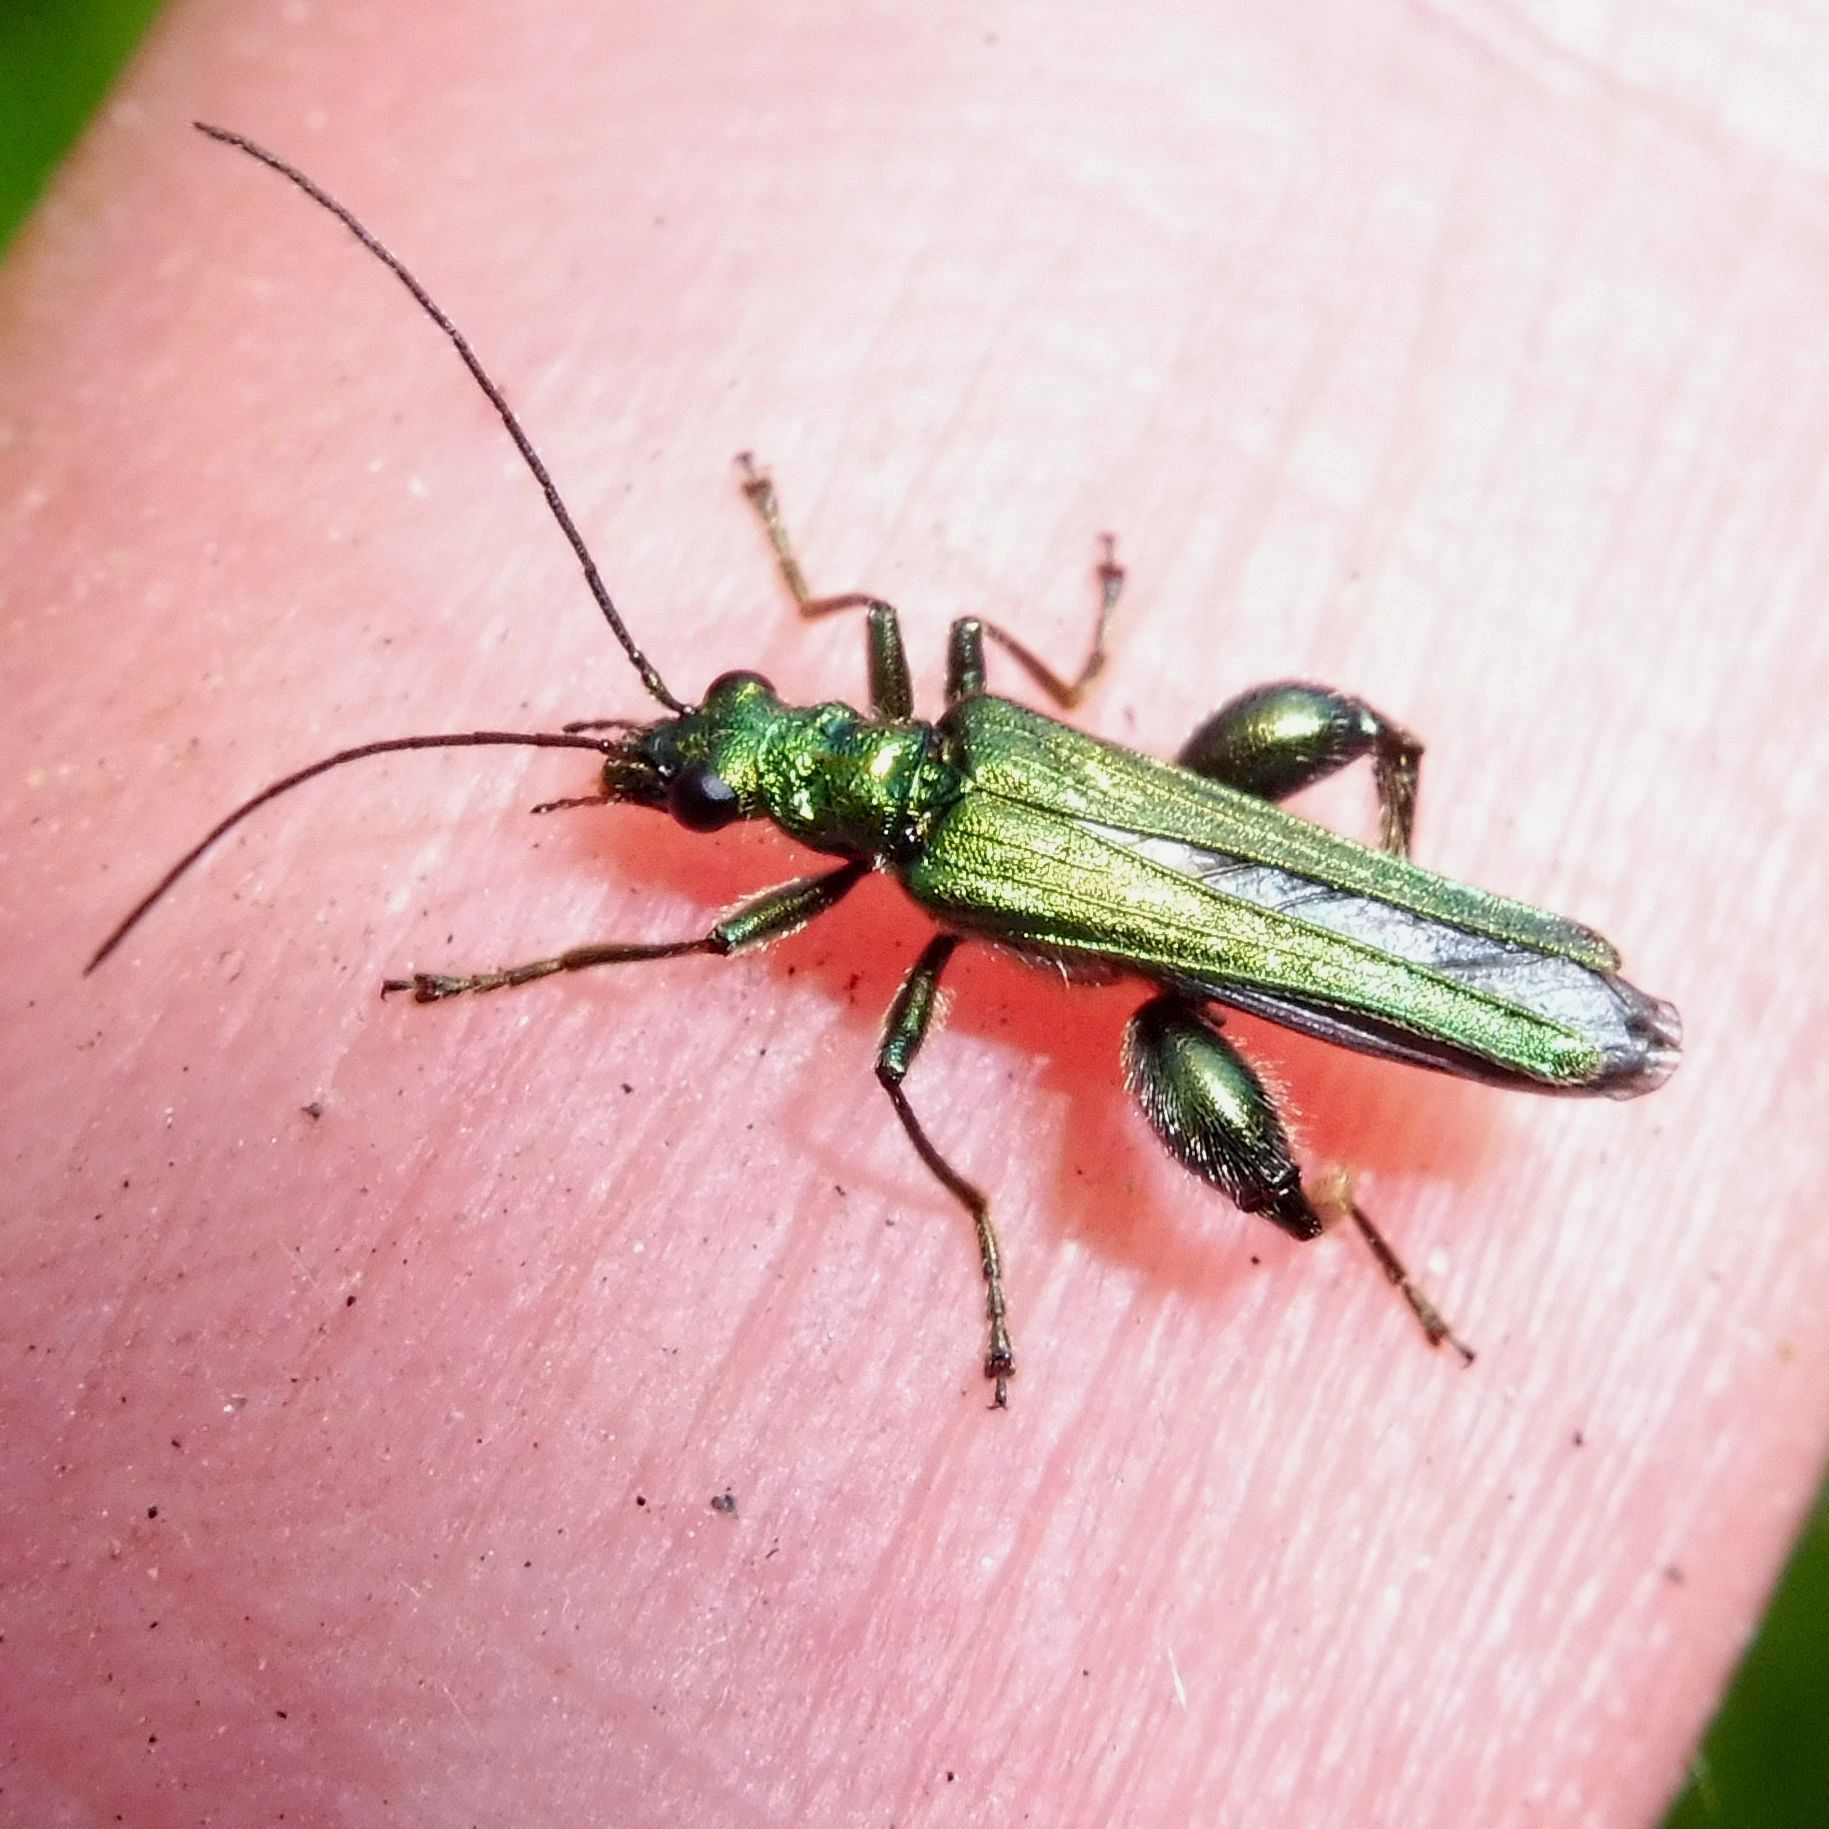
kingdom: Animalia
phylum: Arthropoda
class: Insecta
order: Coleoptera
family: Oedemeridae
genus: Oedemera
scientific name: Oedemera nobilis
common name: Swollen-thighed beetle
